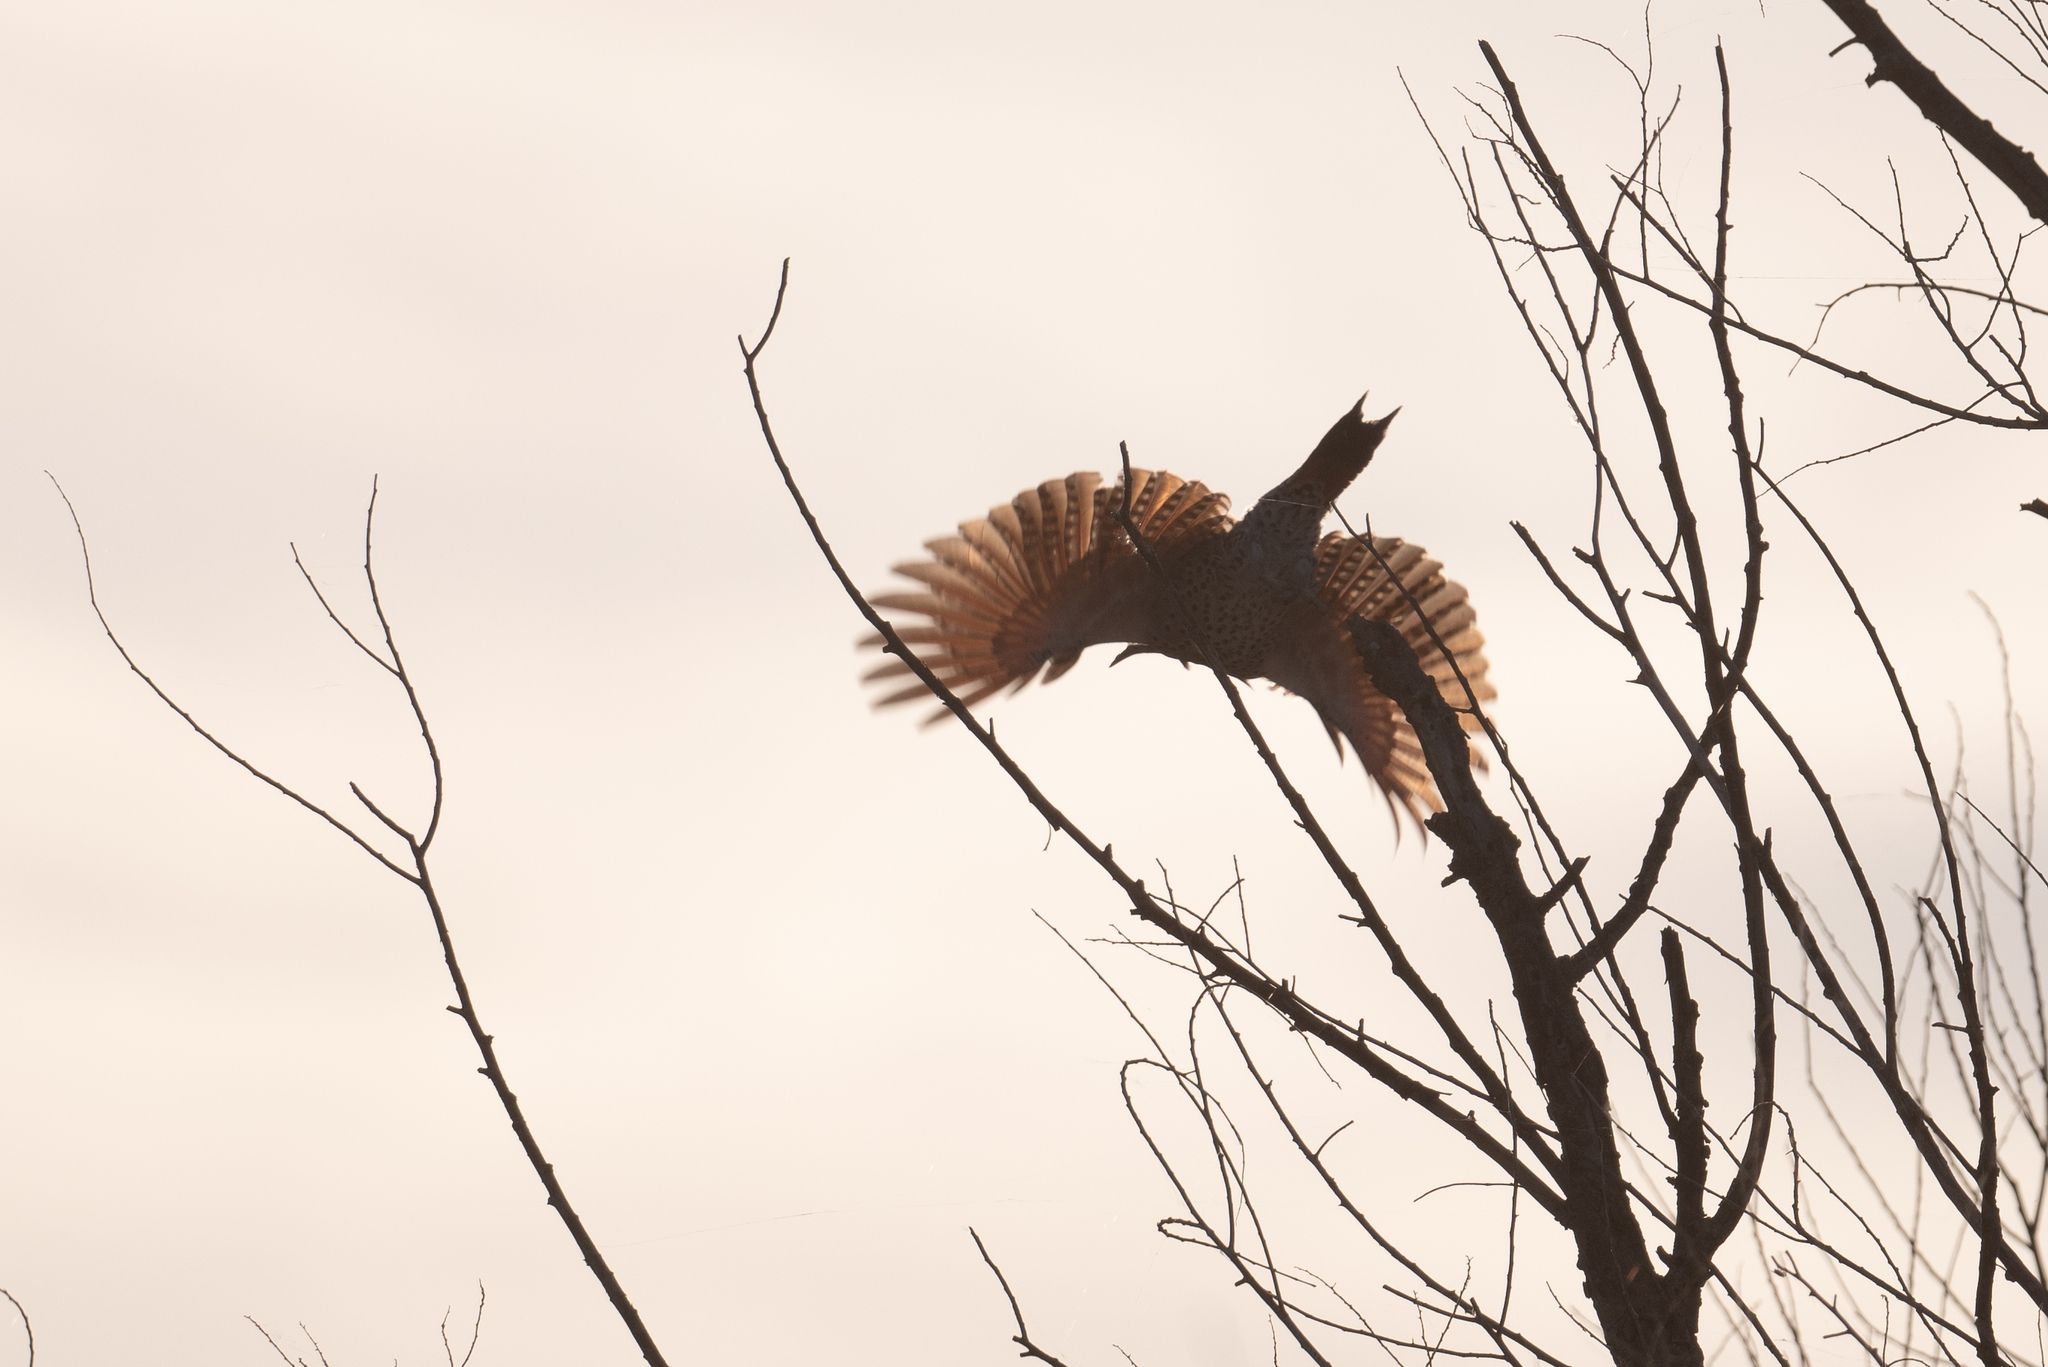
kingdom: Animalia
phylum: Chordata
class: Aves
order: Piciformes
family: Picidae
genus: Colaptes
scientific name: Colaptes auratus
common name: Northern flicker
